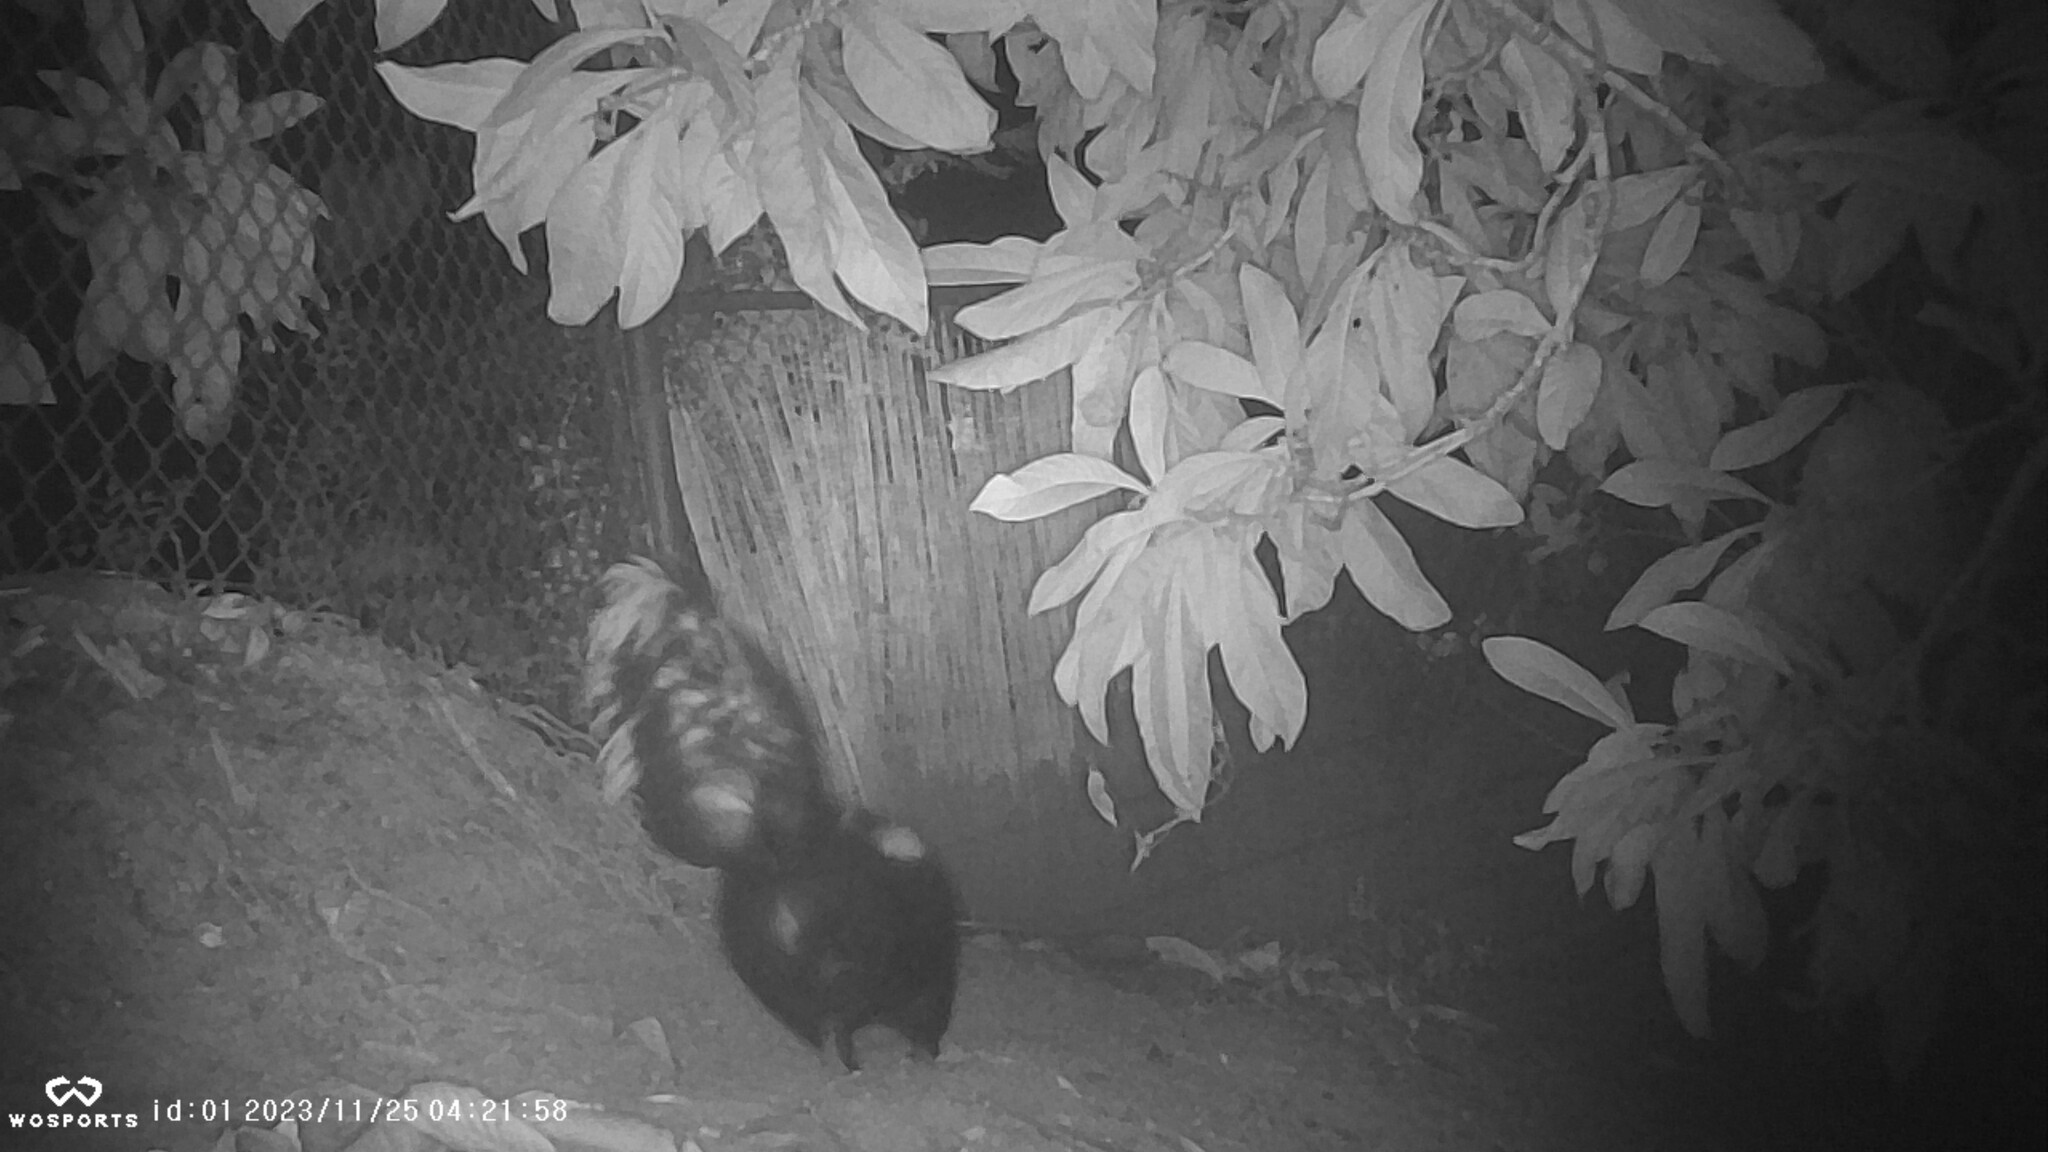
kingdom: Animalia
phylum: Chordata
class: Mammalia
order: Carnivora
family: Mephitidae
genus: Mephitis
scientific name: Mephitis mephitis
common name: Striped skunk
